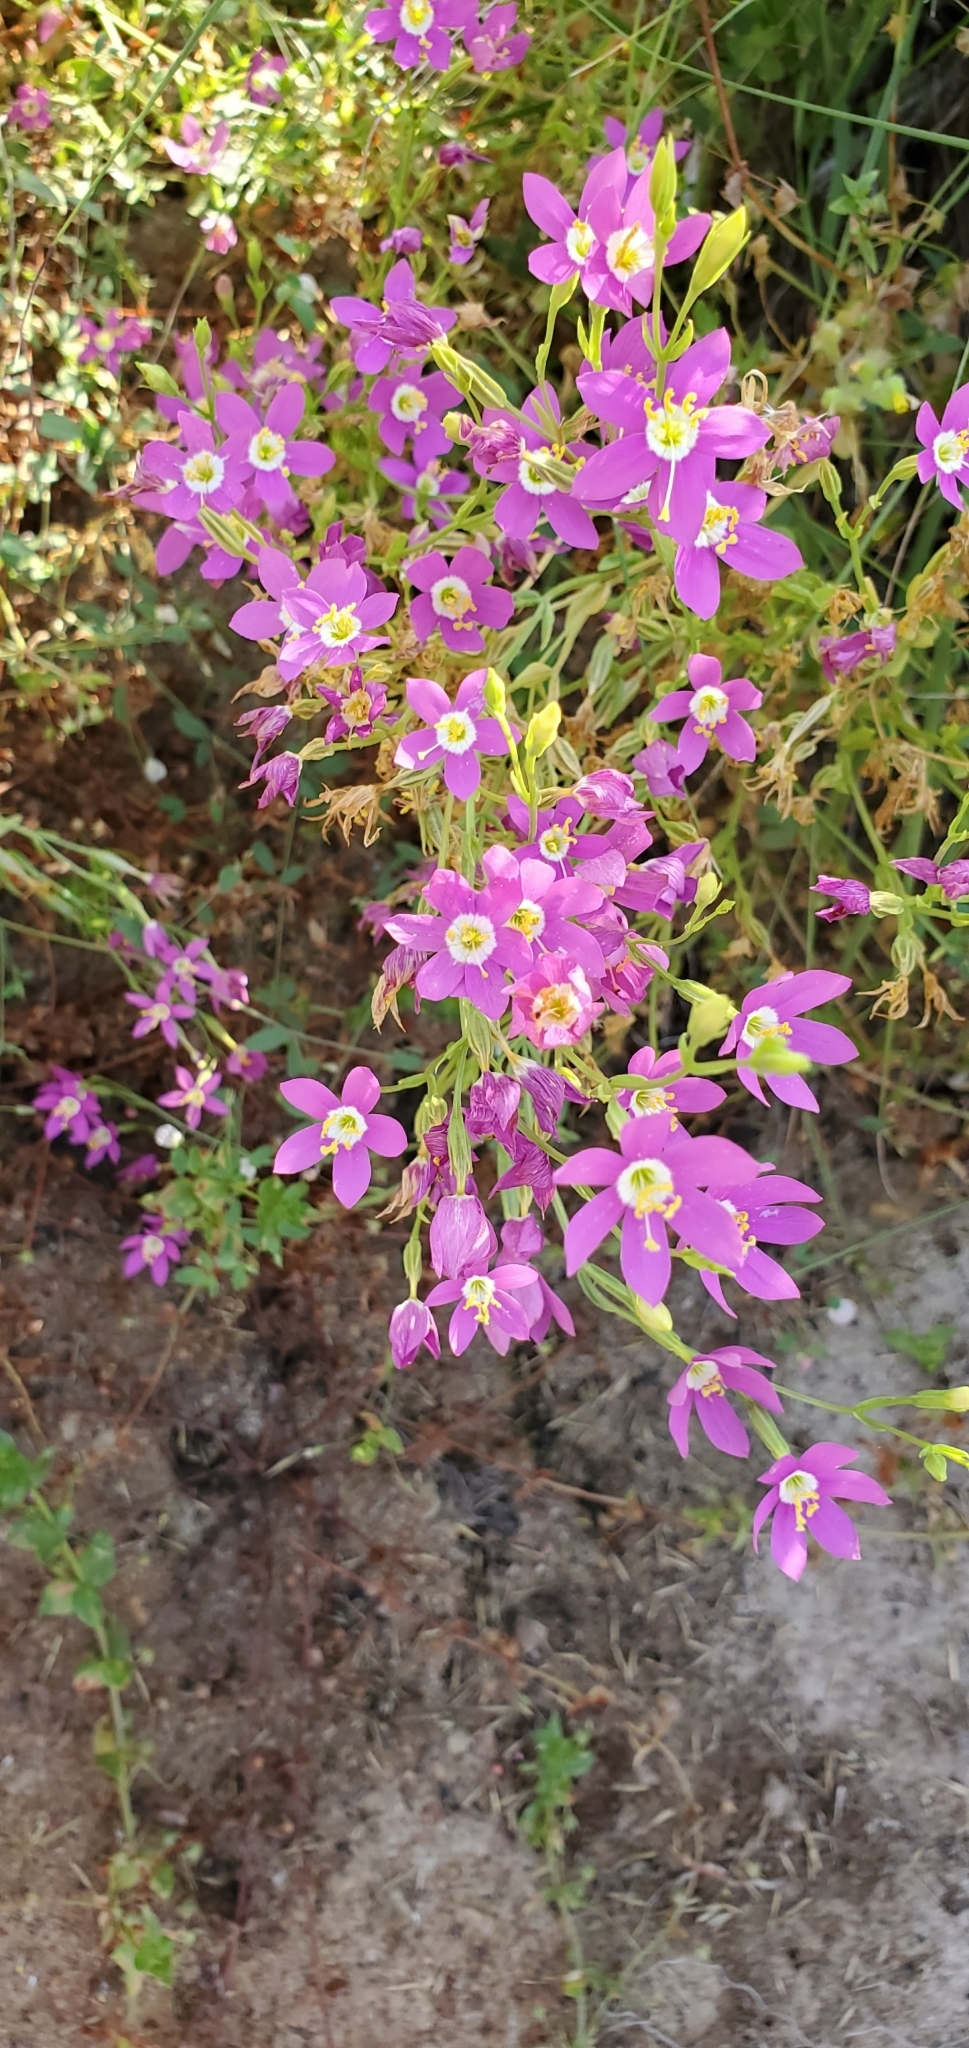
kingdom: Plantae
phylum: Tracheophyta
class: Magnoliopsida
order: Gentianales
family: Gentianaceae
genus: Zeltnera
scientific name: Zeltnera venusta
